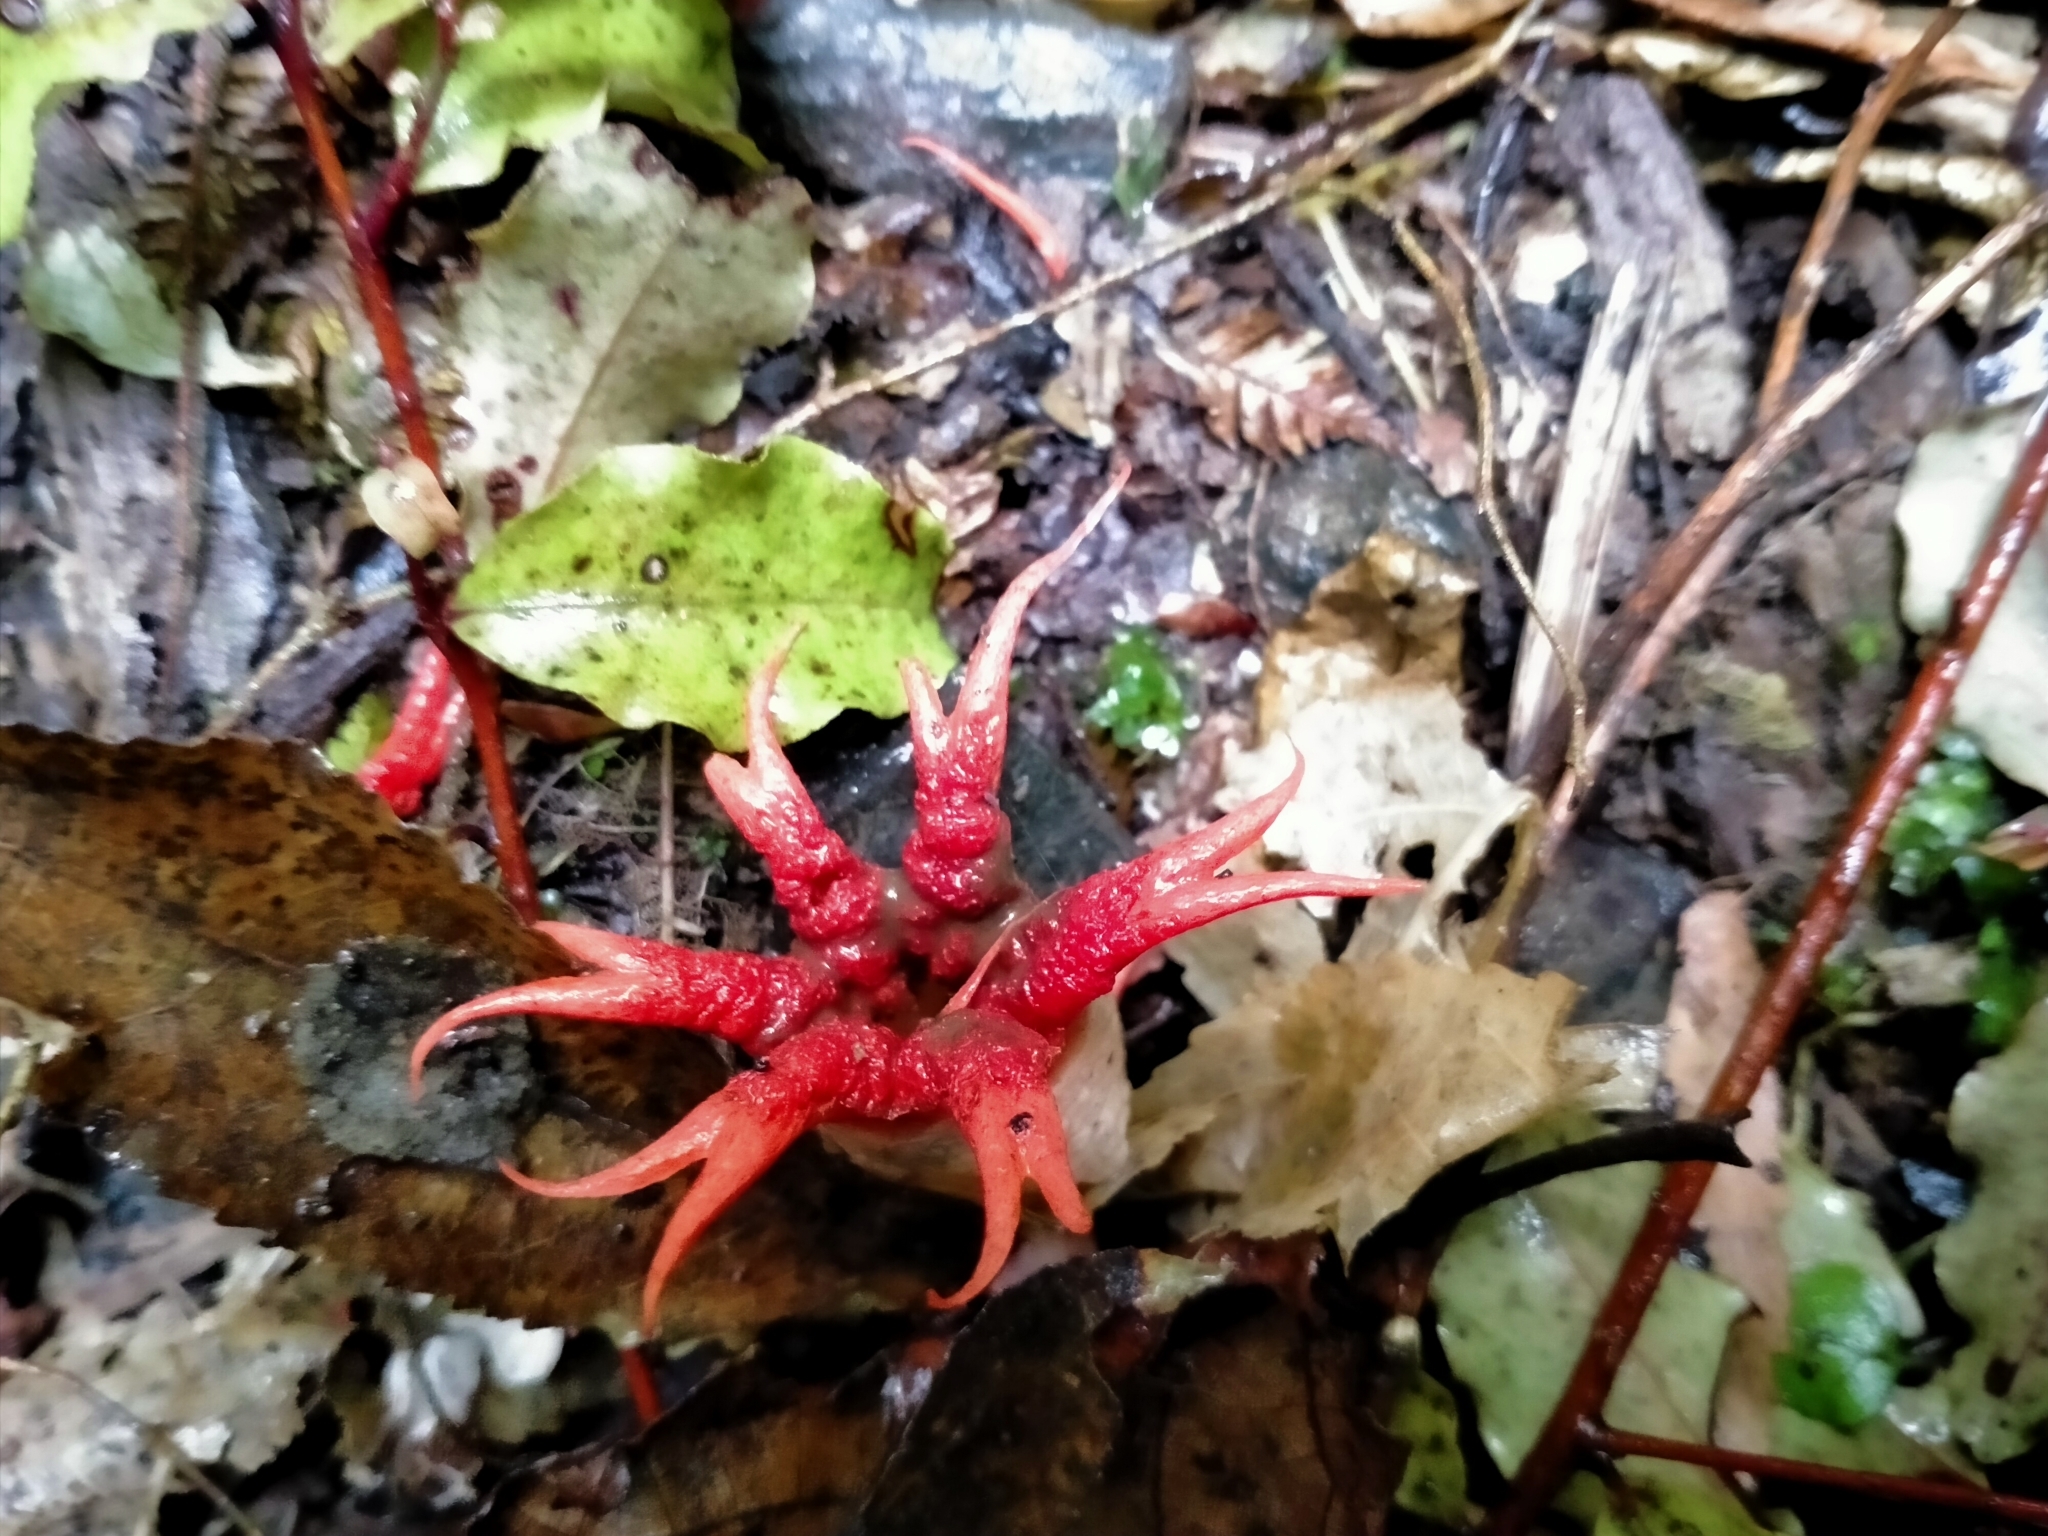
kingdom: Fungi
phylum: Basidiomycota
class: Agaricomycetes
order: Phallales
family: Phallaceae
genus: Aseroe
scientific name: Aseroe rubra
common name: Starfish fungus
